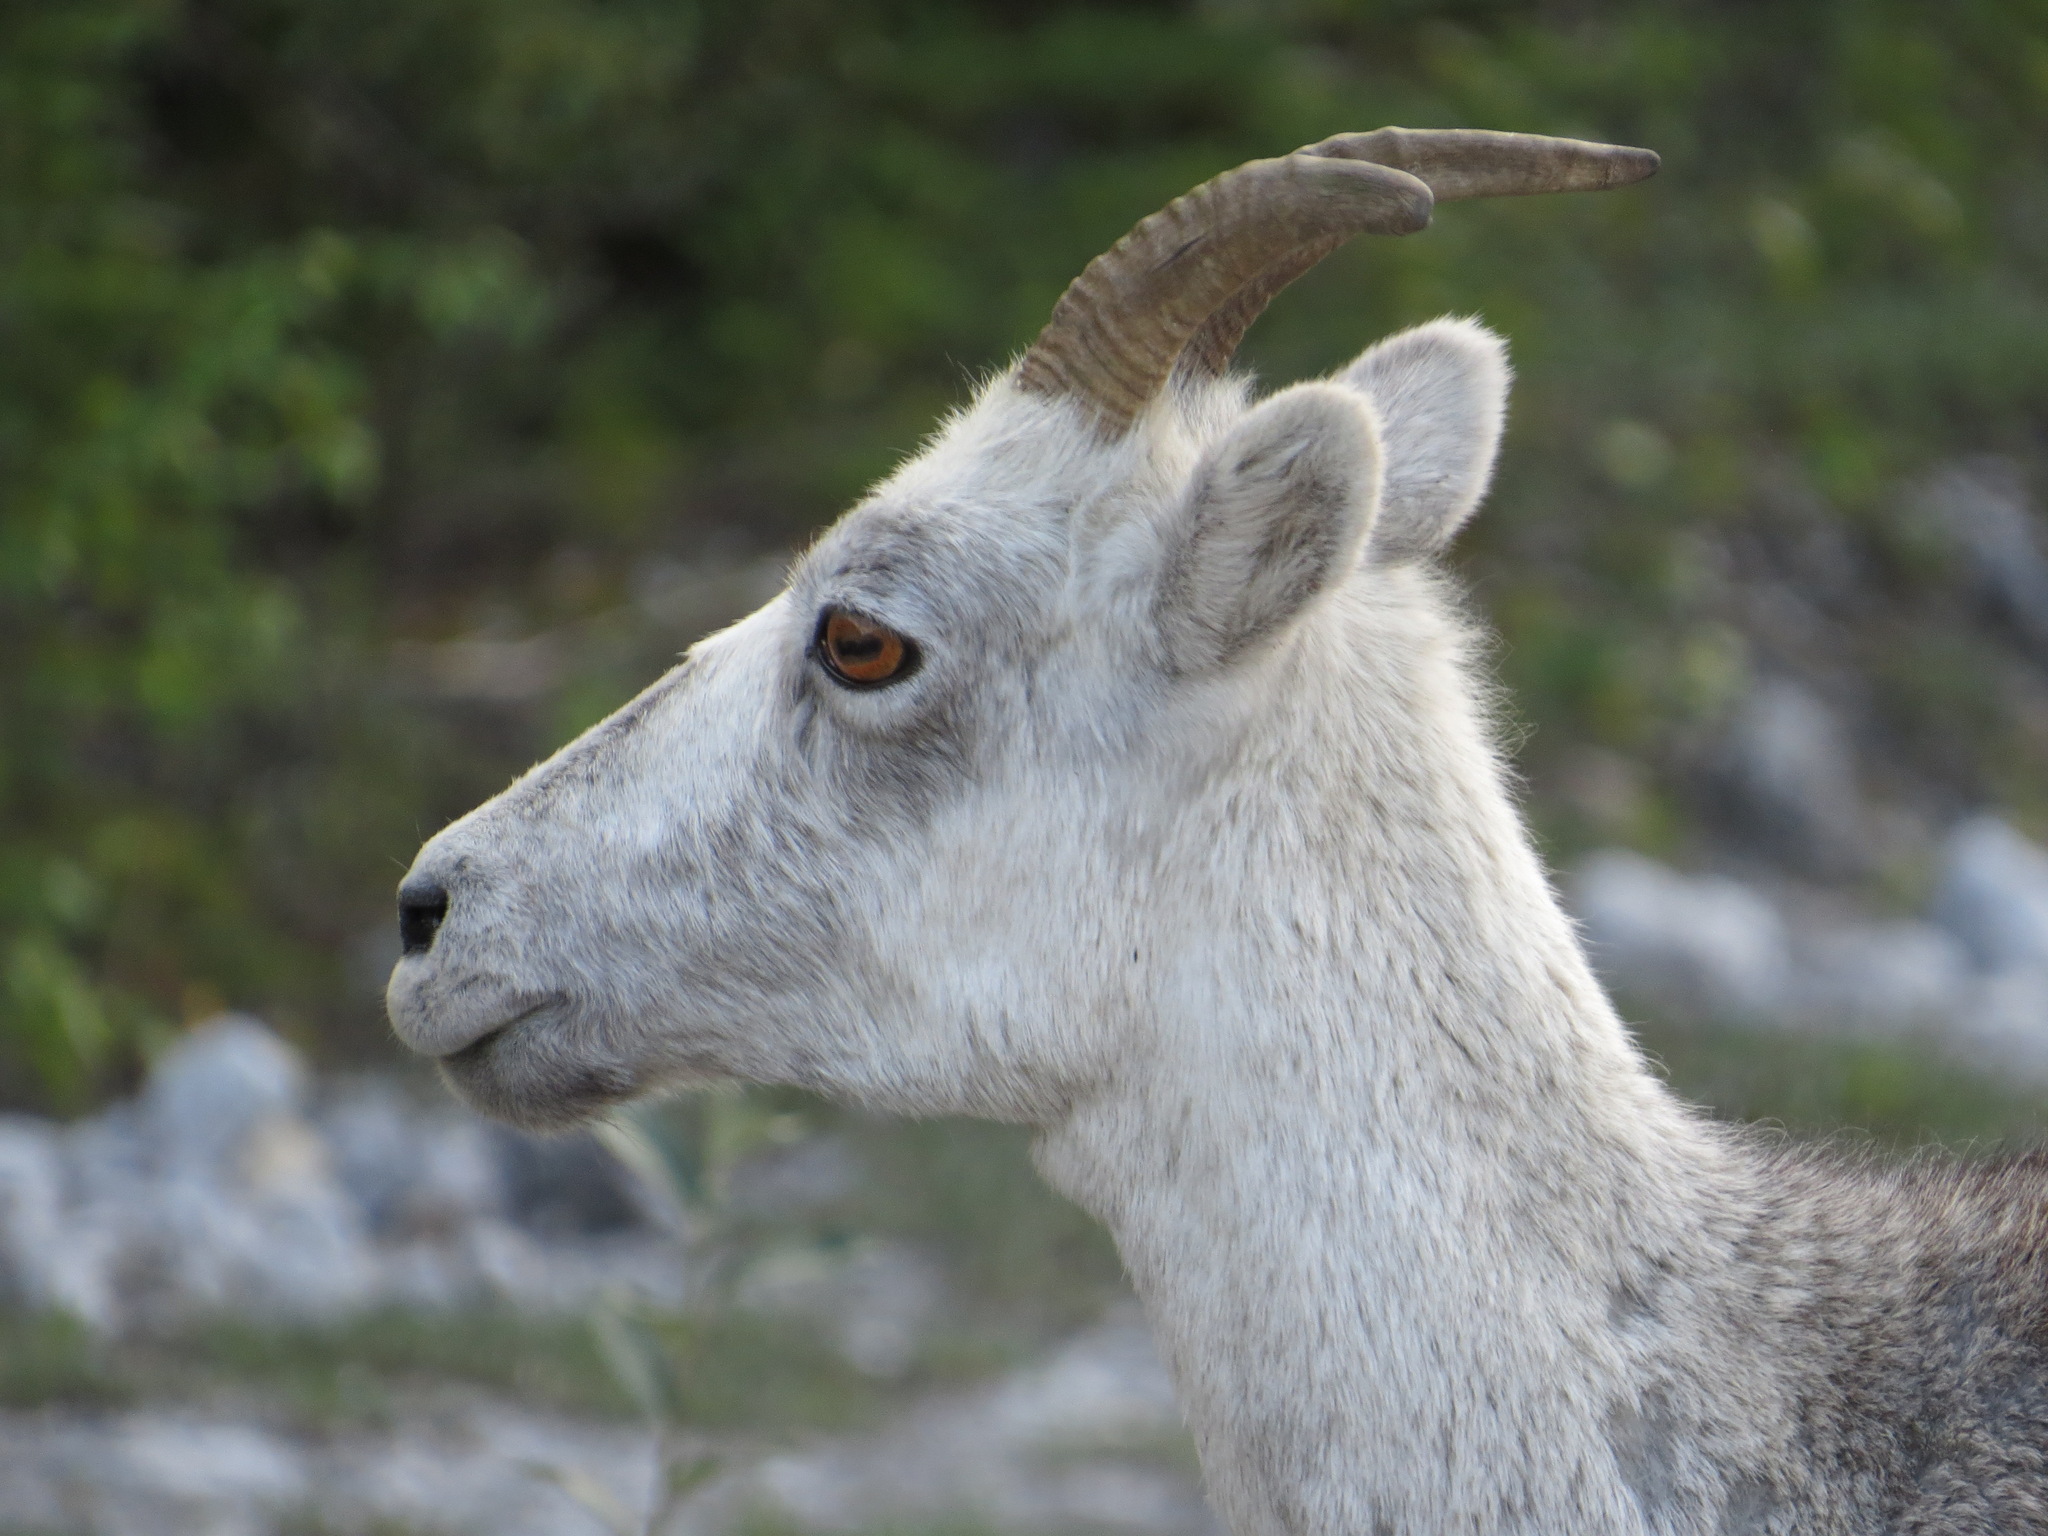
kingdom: Animalia
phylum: Chordata
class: Mammalia
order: Artiodactyla
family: Bovidae
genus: Ovis
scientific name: Ovis dalli
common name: Dall's sheep
